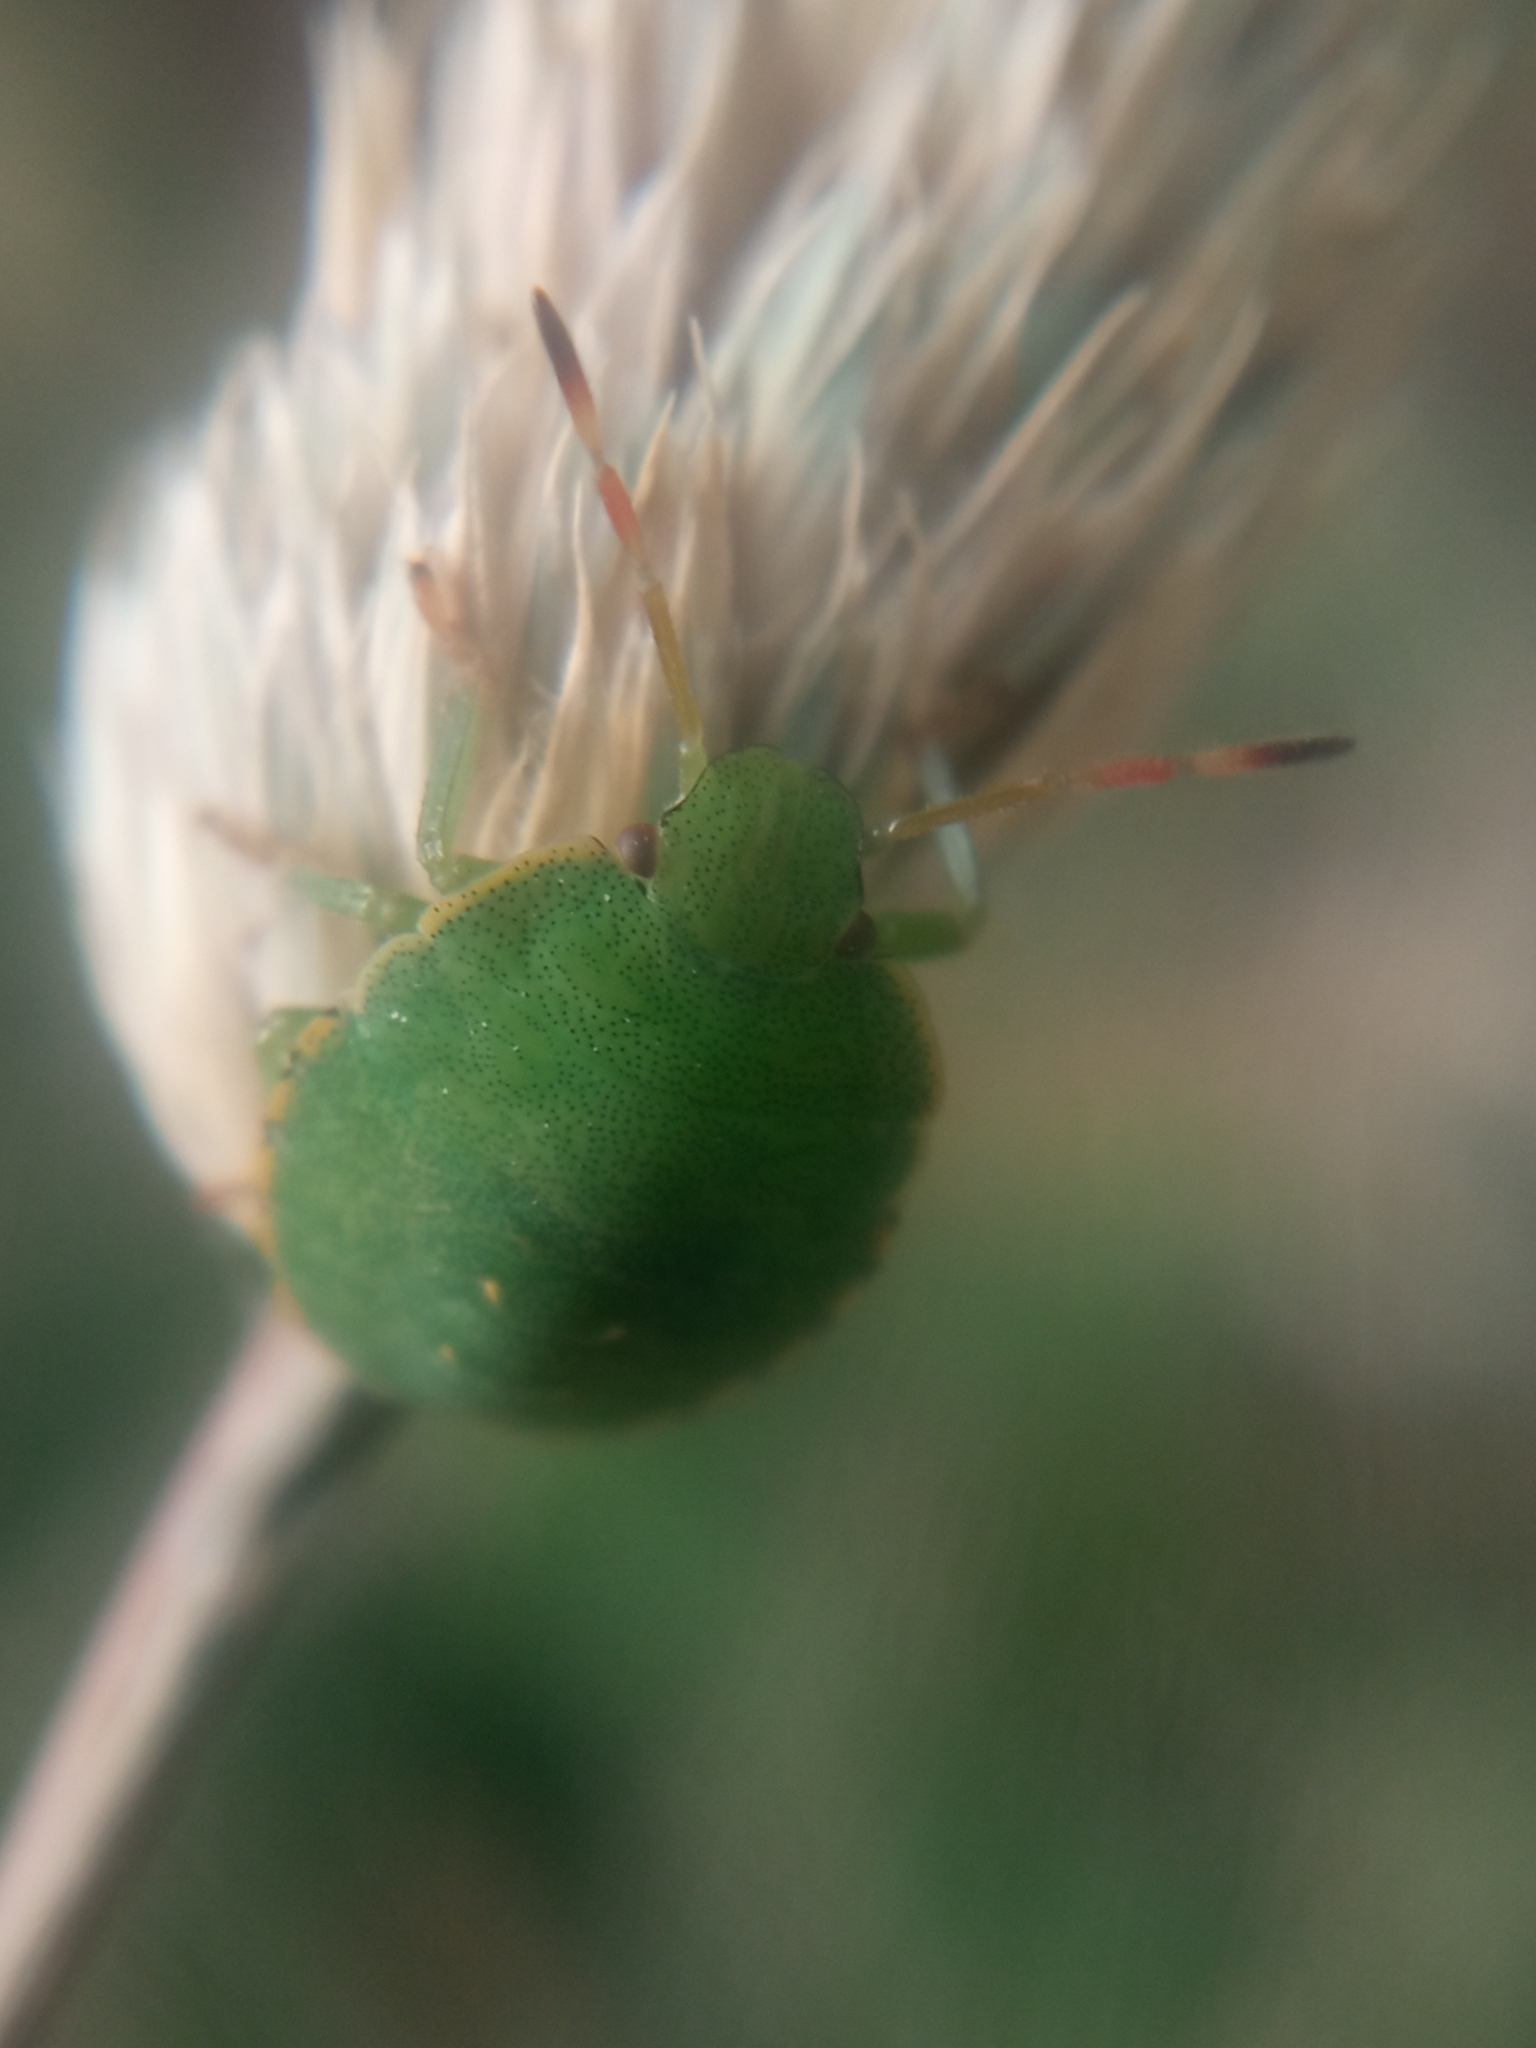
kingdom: Animalia
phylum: Arthropoda
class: Insecta
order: Hemiptera
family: Pentatomidae
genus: Palomena
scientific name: Palomena prasina
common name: Green shieldbug
